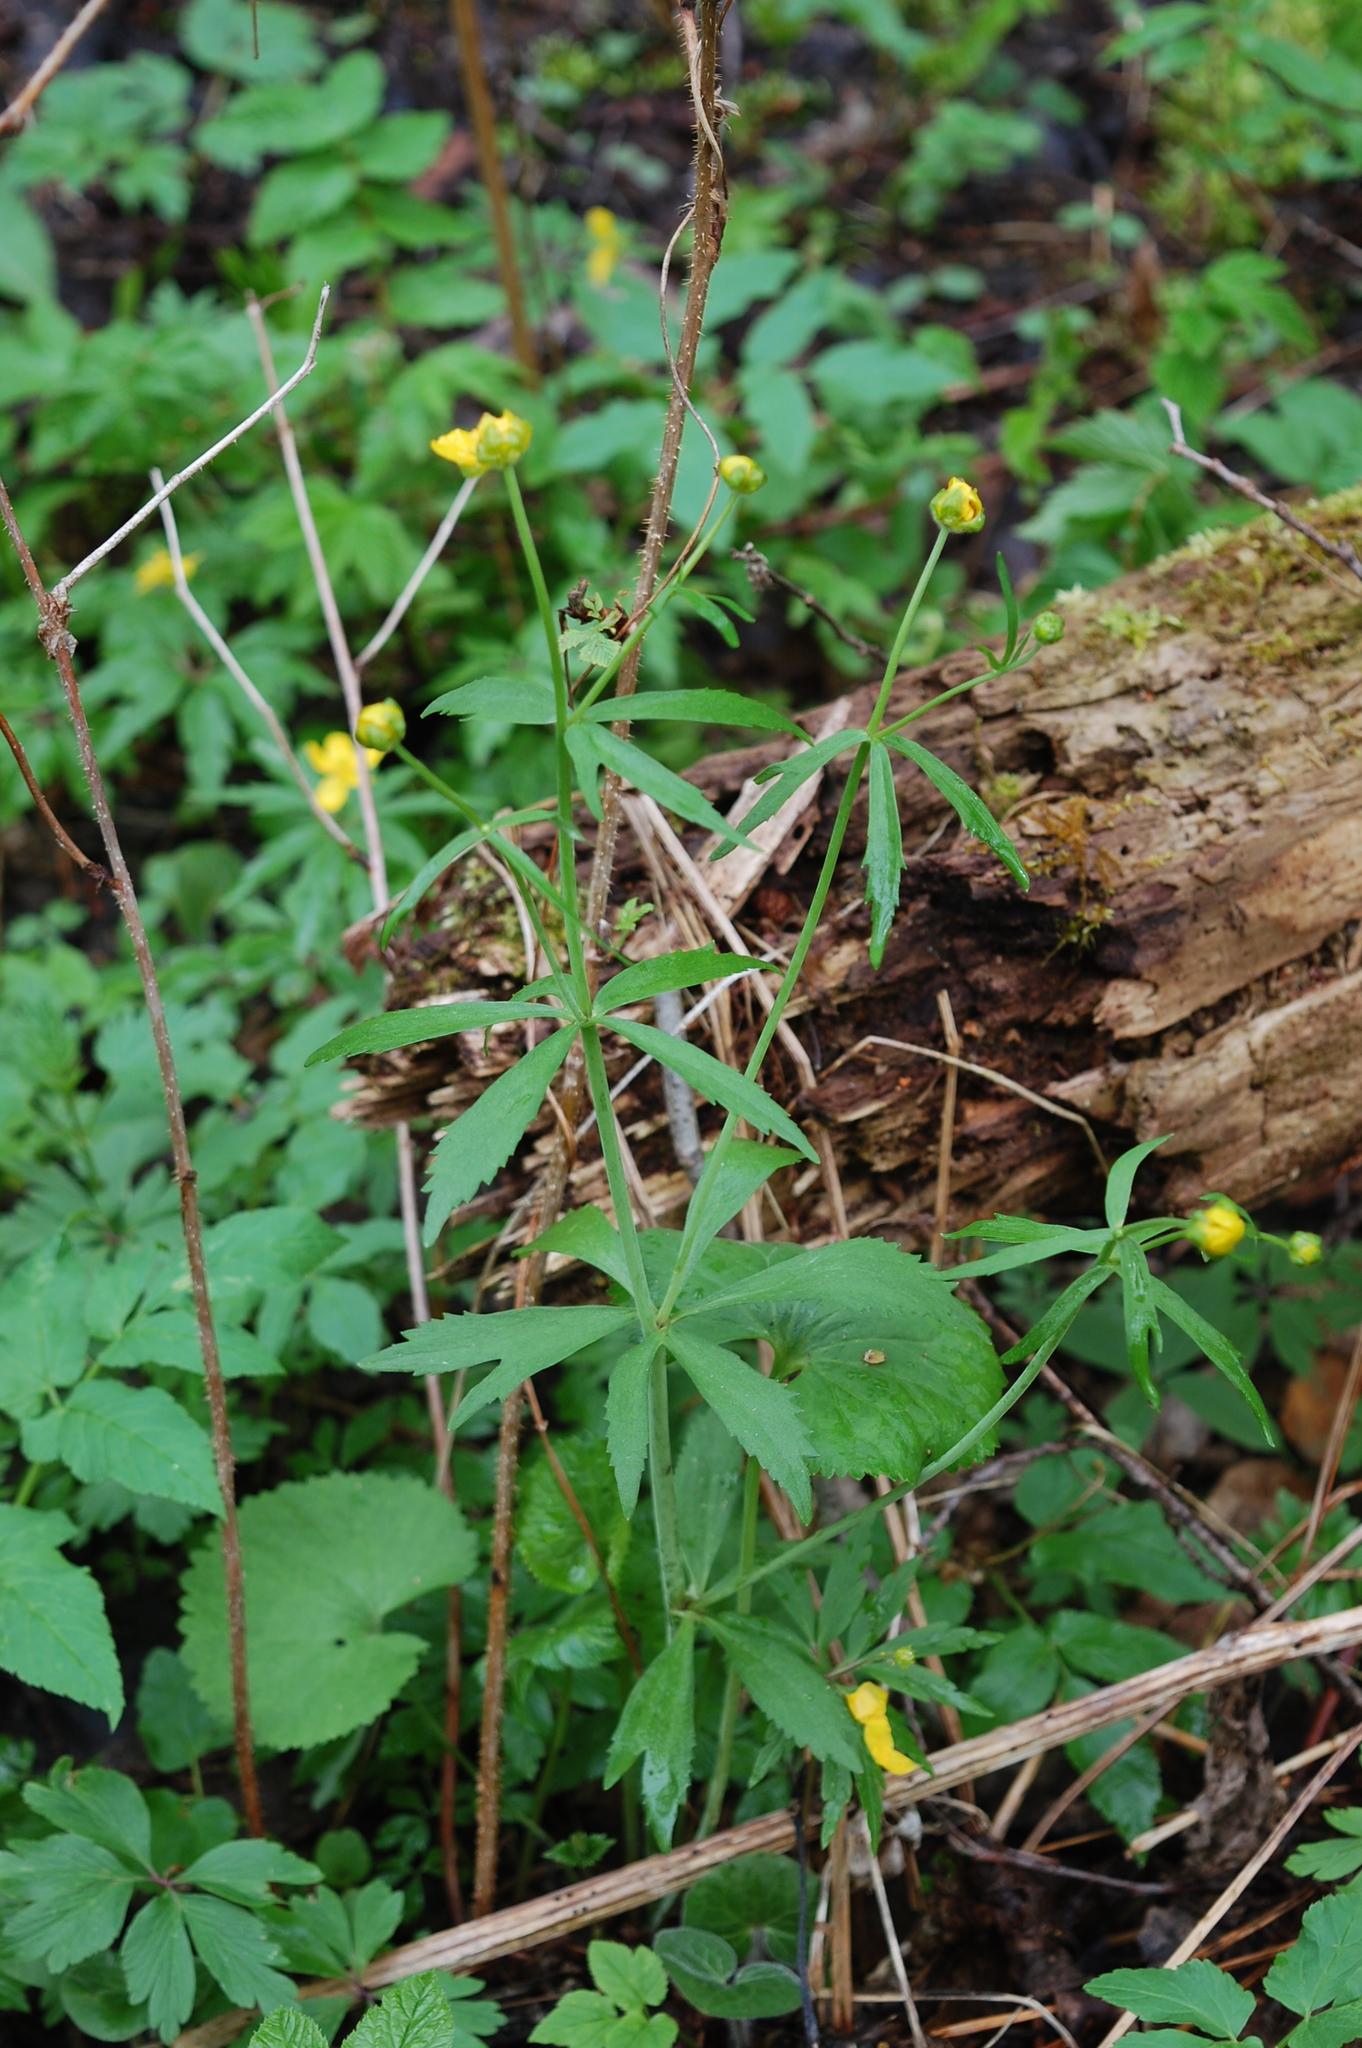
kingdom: Plantae
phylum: Tracheophyta
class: Magnoliopsida
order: Ranunculales
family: Ranunculaceae
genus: Ranunculus
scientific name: Ranunculus cassubicus
